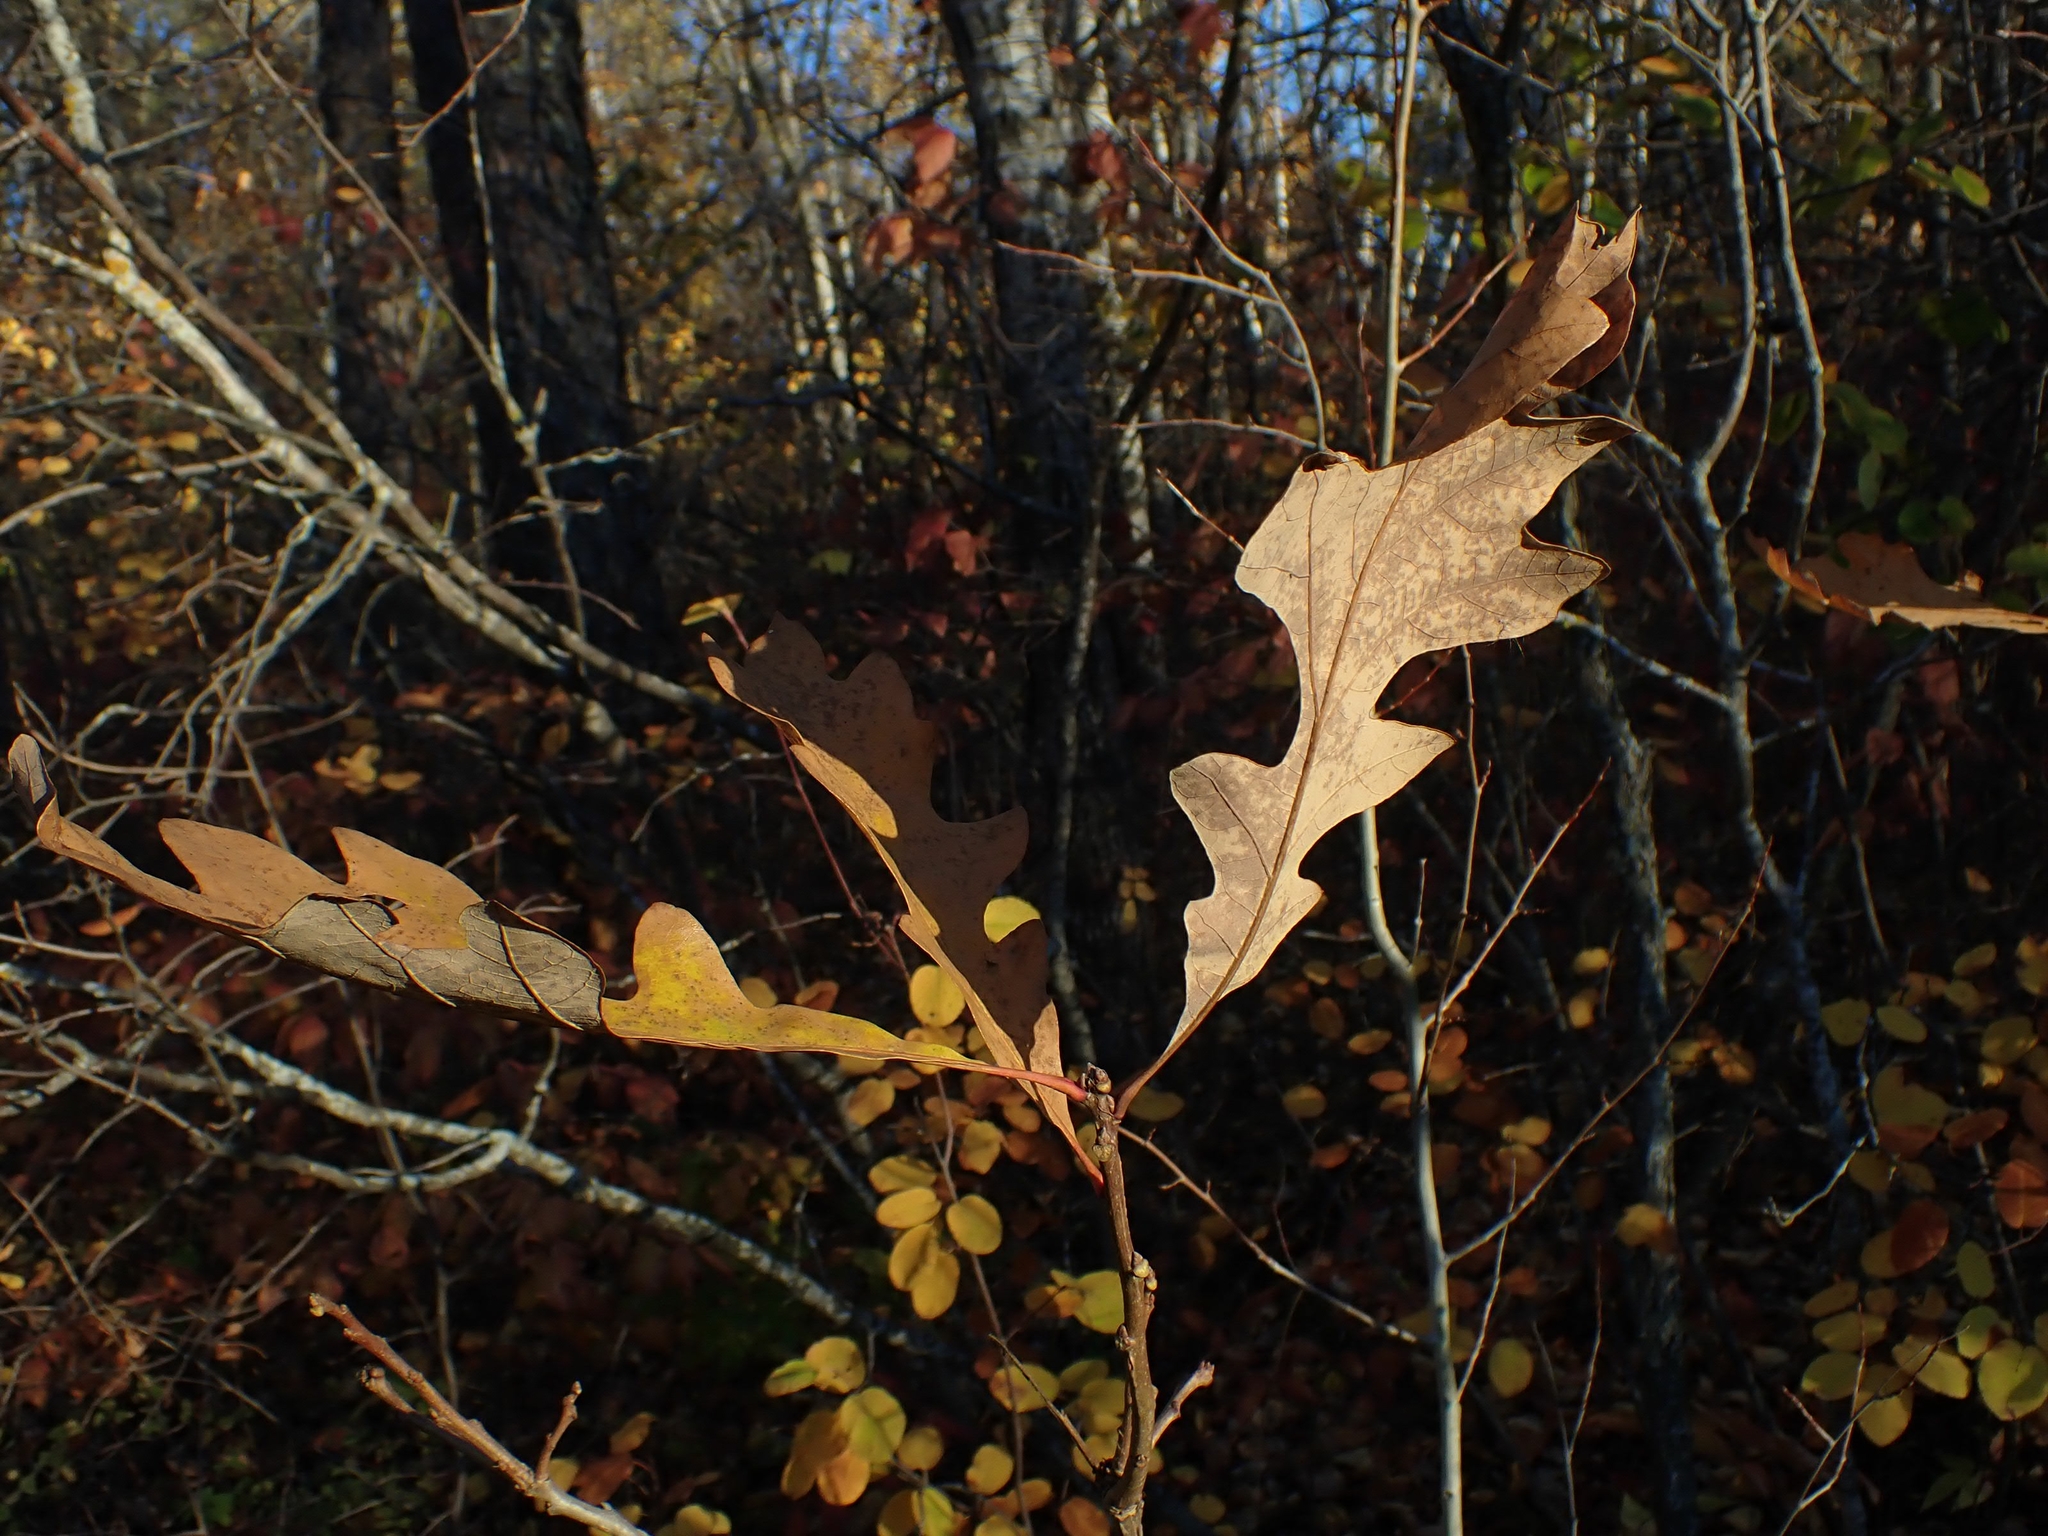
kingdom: Plantae
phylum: Tracheophyta
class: Magnoliopsida
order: Fagales
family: Fagaceae
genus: Quercus
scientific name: Quercus macrocarpa
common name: Bur oak
